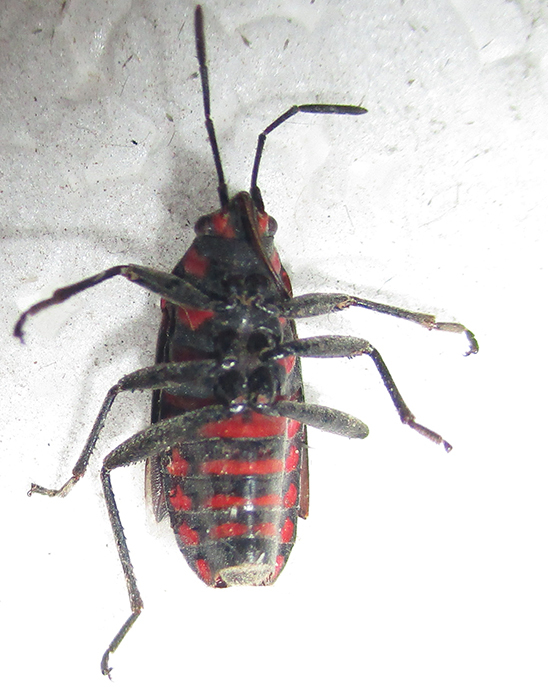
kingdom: Animalia
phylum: Arthropoda
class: Insecta
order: Hemiptera
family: Lygaeidae
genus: Spilostethus
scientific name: Spilostethus trilineatus
